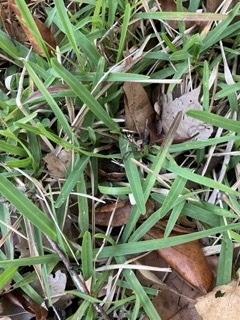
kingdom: Plantae
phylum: Tracheophyta
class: Liliopsida
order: Poales
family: Poaceae
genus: Stenotaphrum
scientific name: Stenotaphrum secundatum
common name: St. augustine grass
